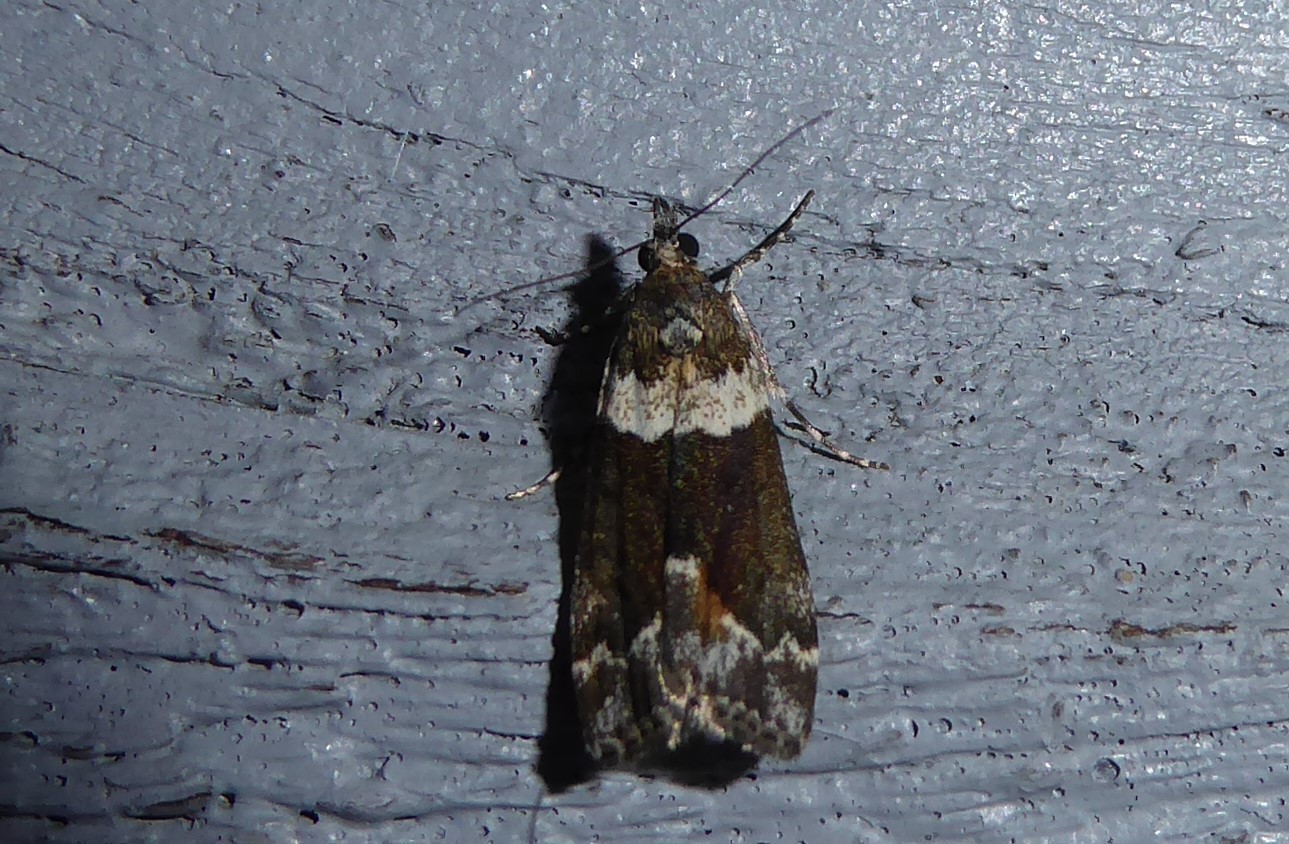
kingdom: Animalia
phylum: Arthropoda
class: Insecta
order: Lepidoptera
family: Crambidae
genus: Eudonia
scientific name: Eudonia submarginalis
